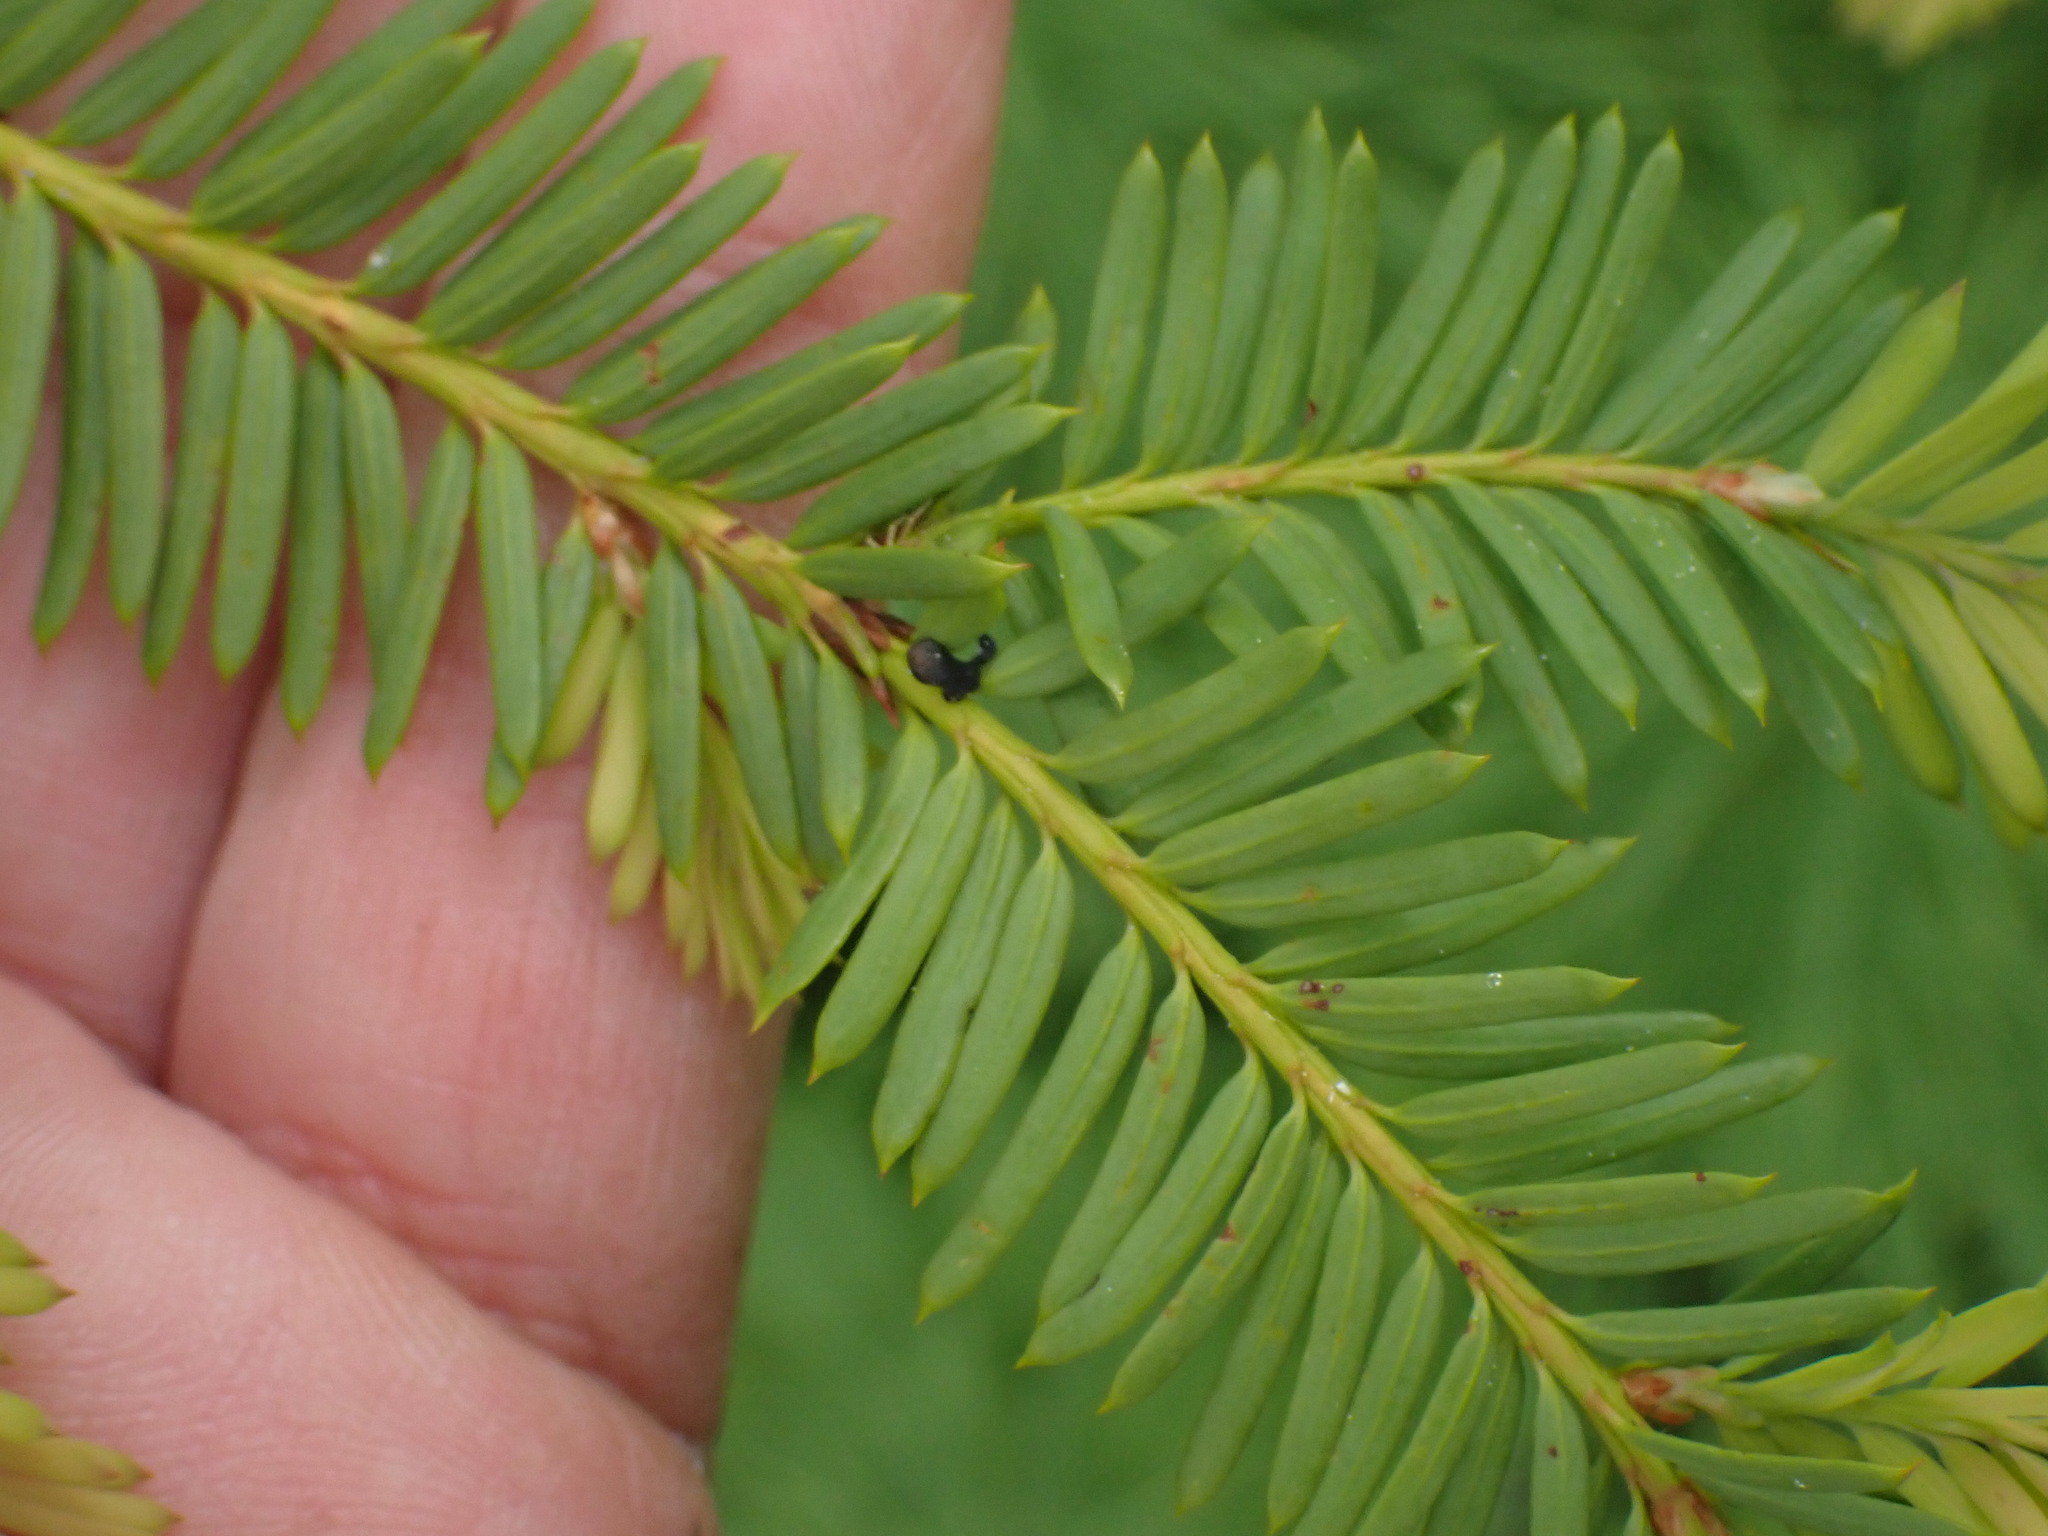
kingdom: Plantae
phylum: Tracheophyta
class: Pinopsida
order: Pinales
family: Taxaceae
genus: Taxus
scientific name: Taxus brevifolia
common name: Pacific yew
